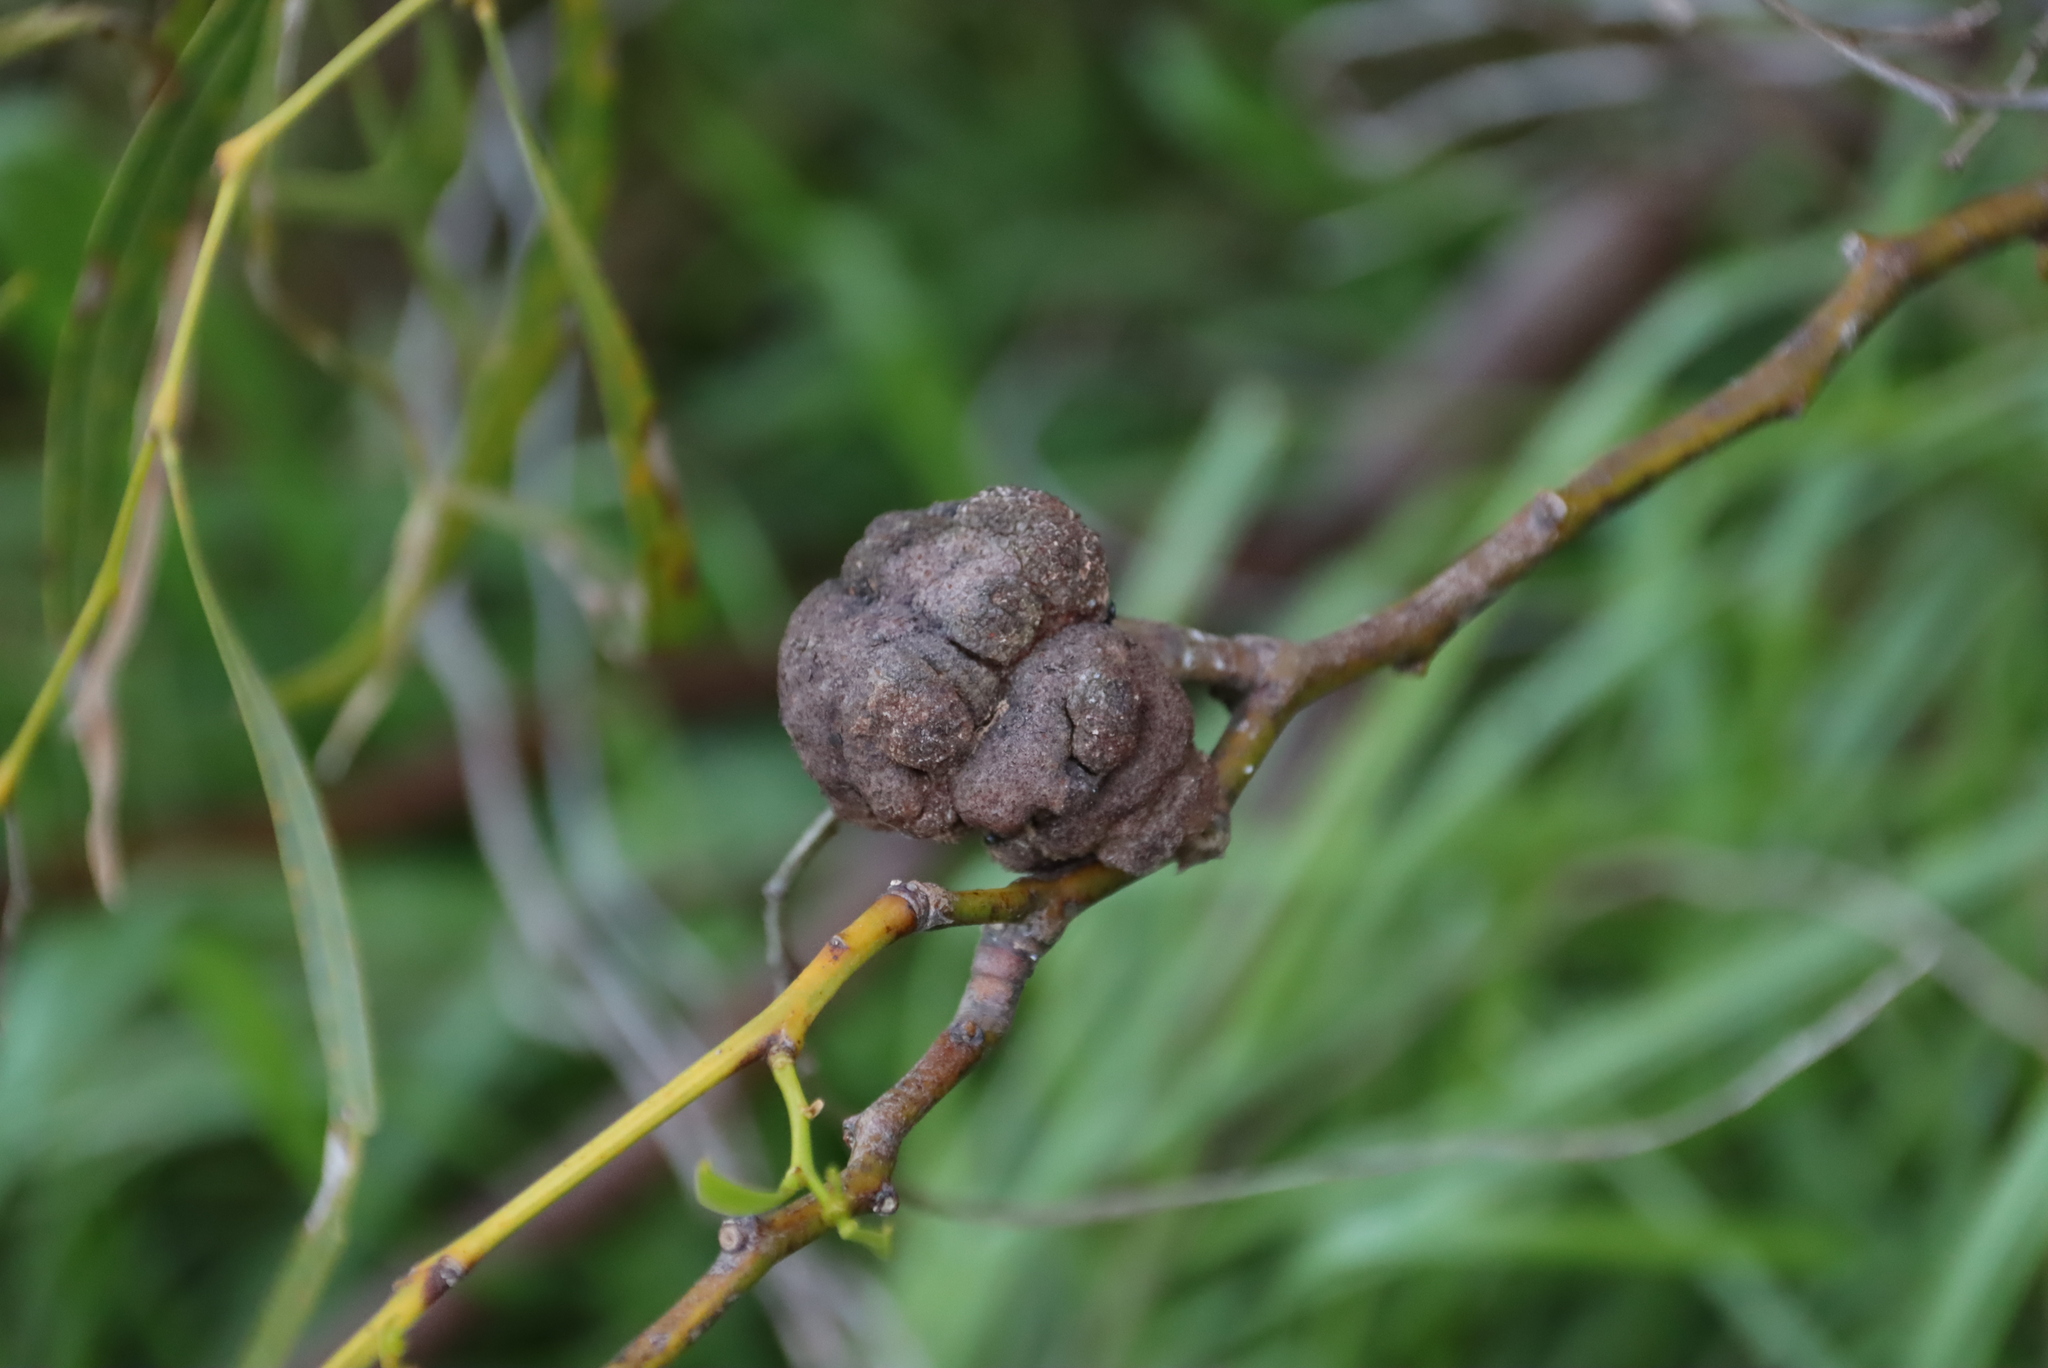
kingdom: Plantae
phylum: Tracheophyta
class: Magnoliopsida
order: Fabales
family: Fabaceae
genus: Acacia
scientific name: Acacia saligna
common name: Orange wattle
